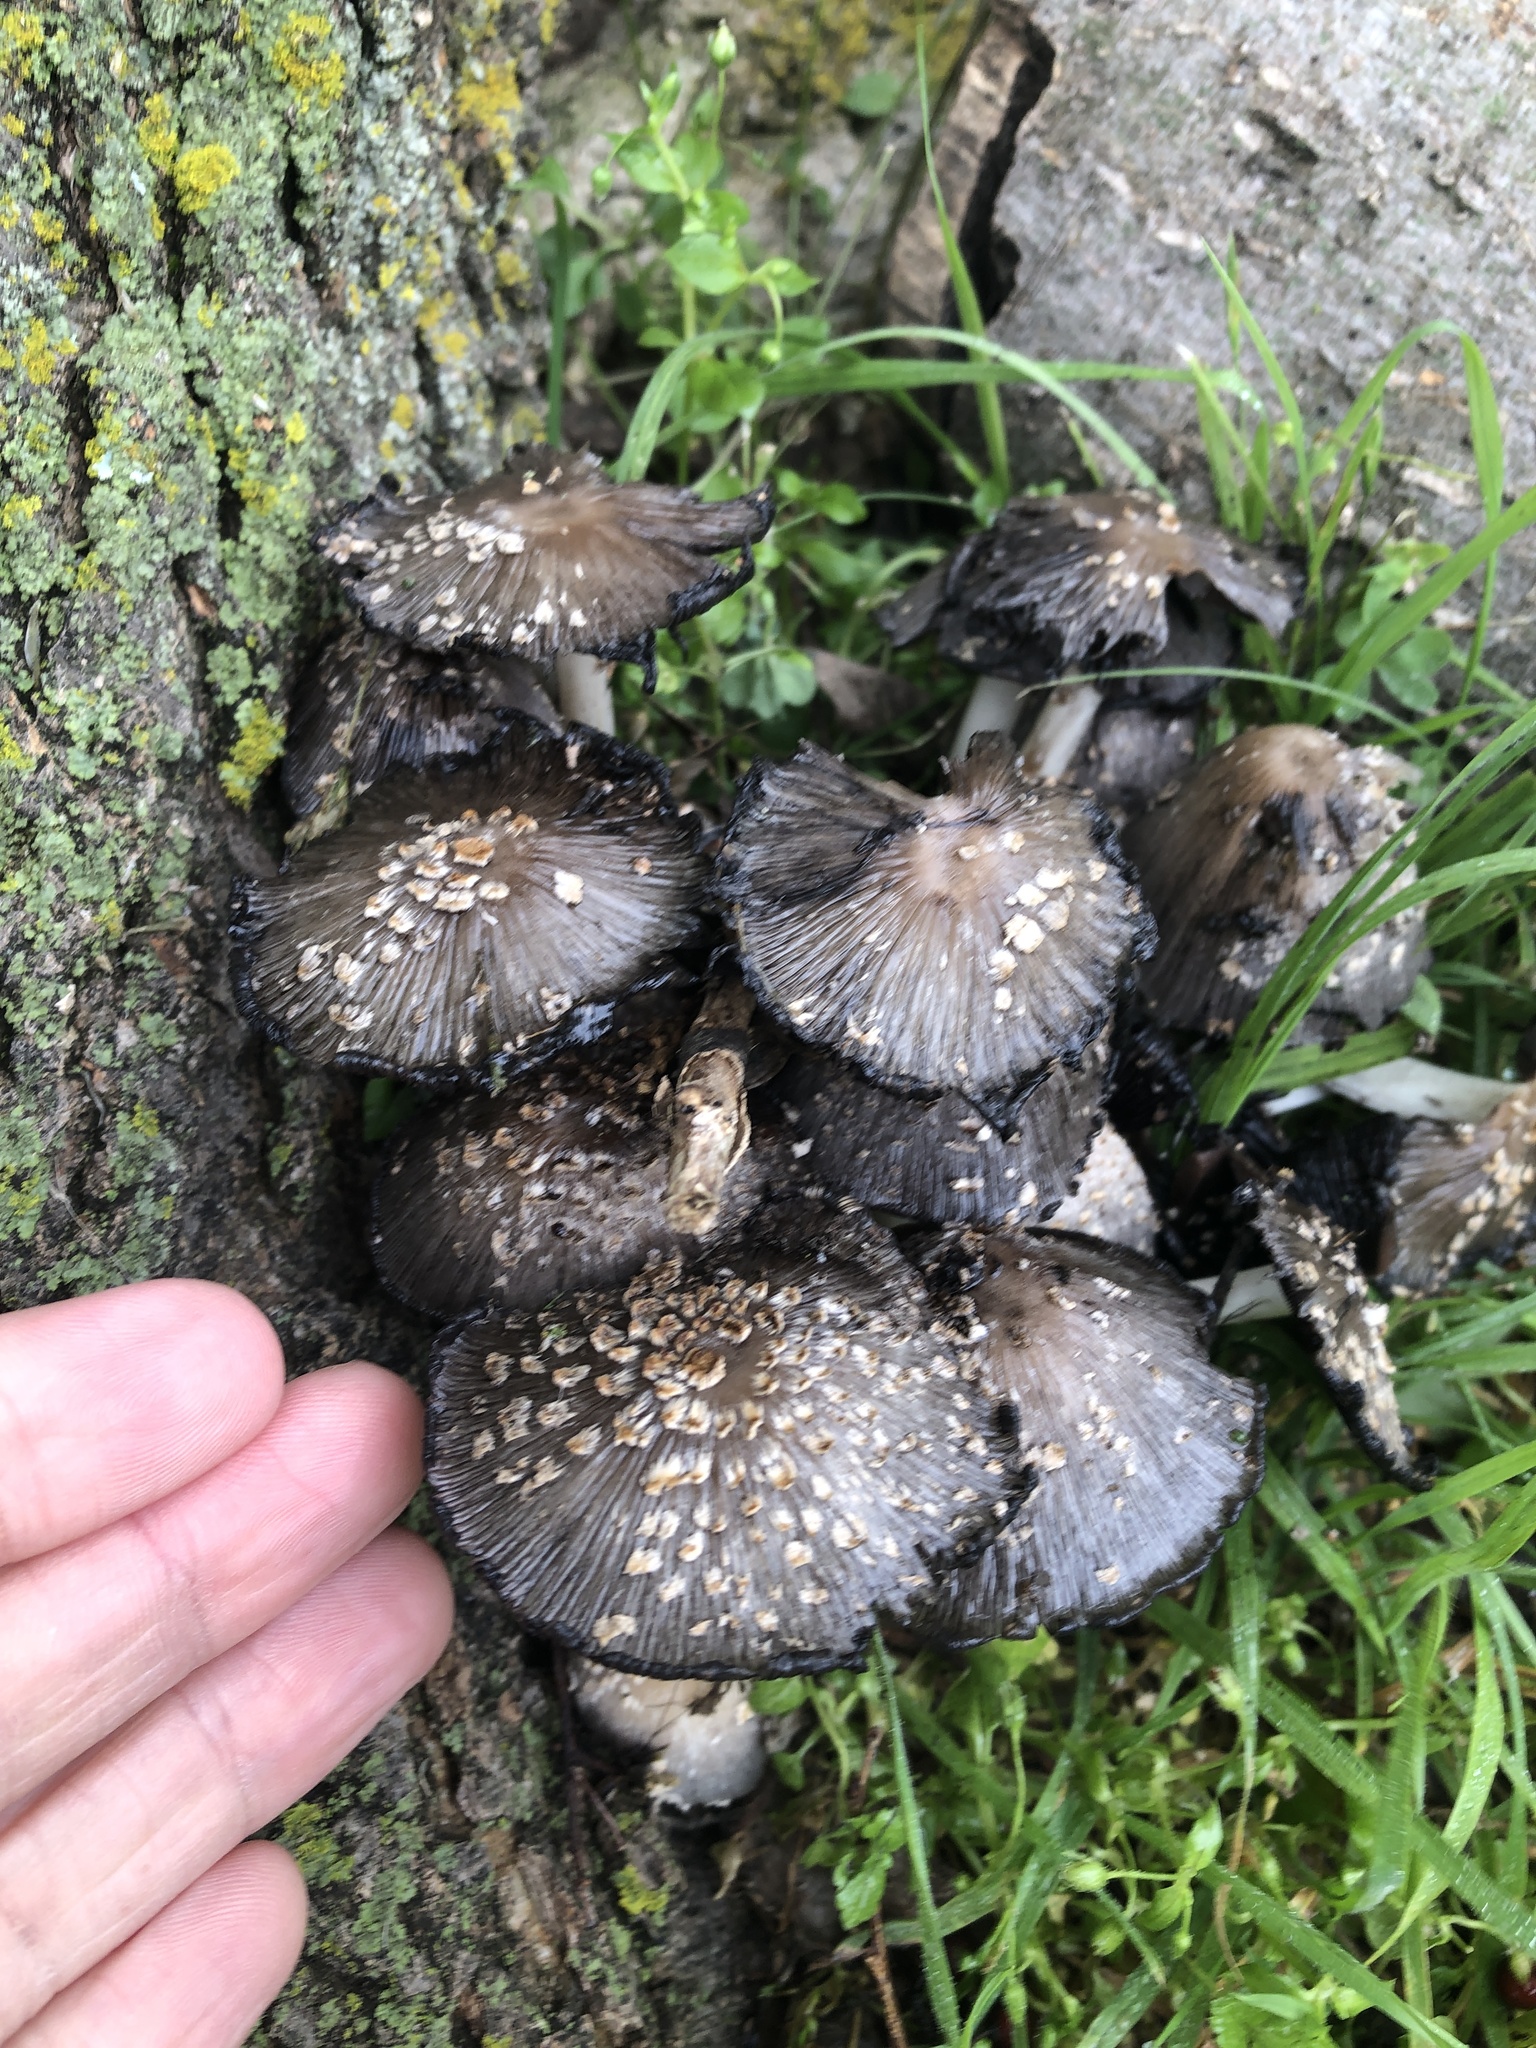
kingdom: Fungi
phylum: Basidiomycota
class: Agaricomycetes
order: Agaricales
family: Psathyrellaceae
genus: Coprinopsis
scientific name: Coprinopsis variegata
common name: Scaly ink cap
